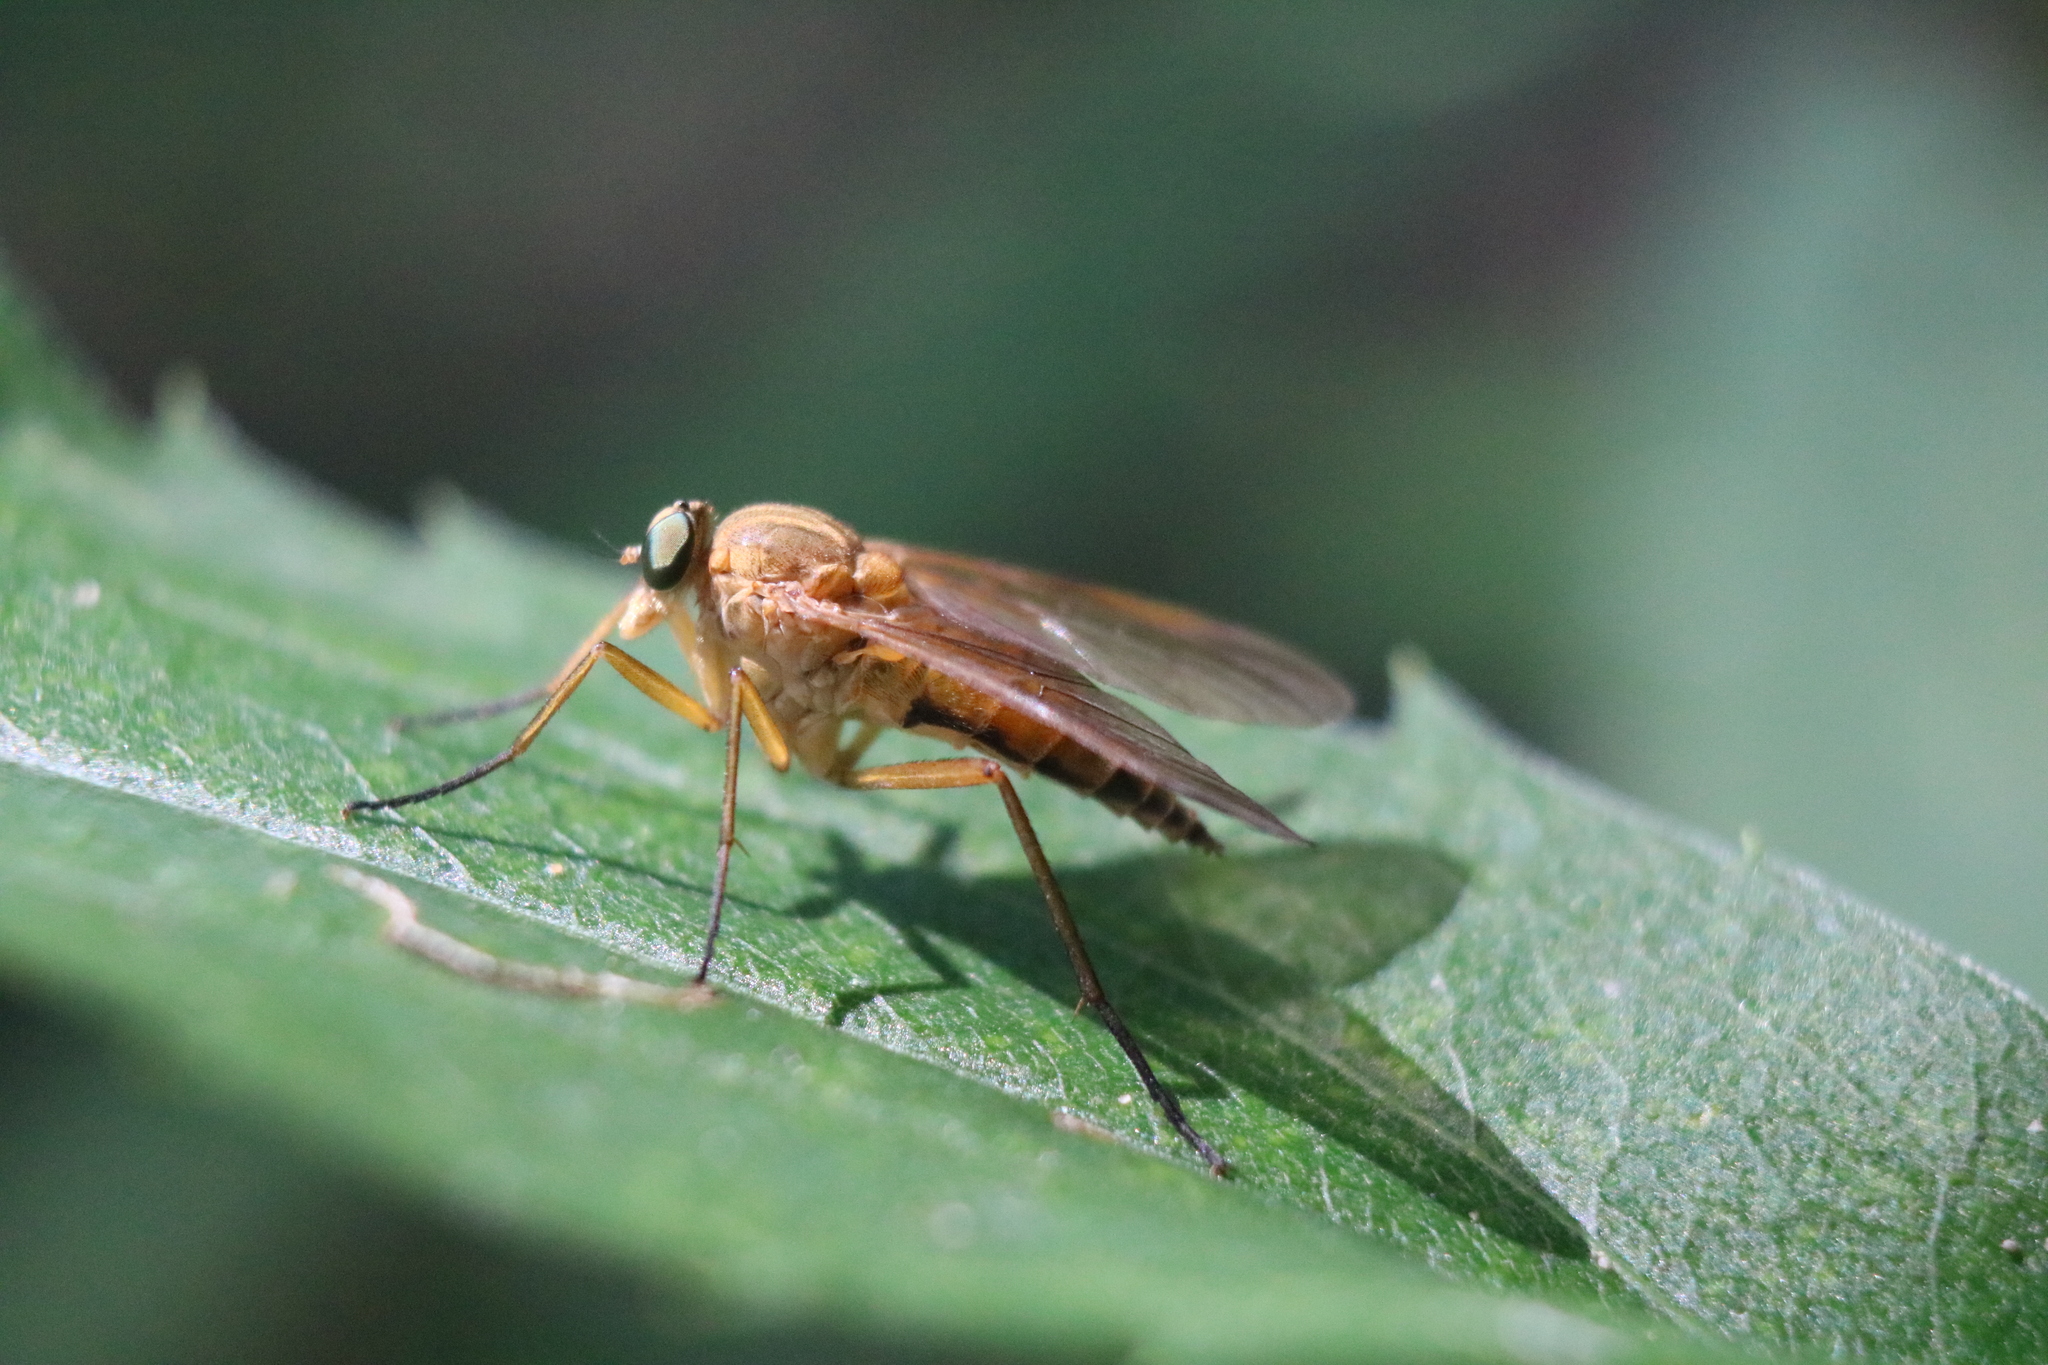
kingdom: Animalia
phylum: Arthropoda
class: Insecta
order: Diptera
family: Rhagionidae
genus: Rhagio
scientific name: Rhagio tringaria
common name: Marsh snipefly
